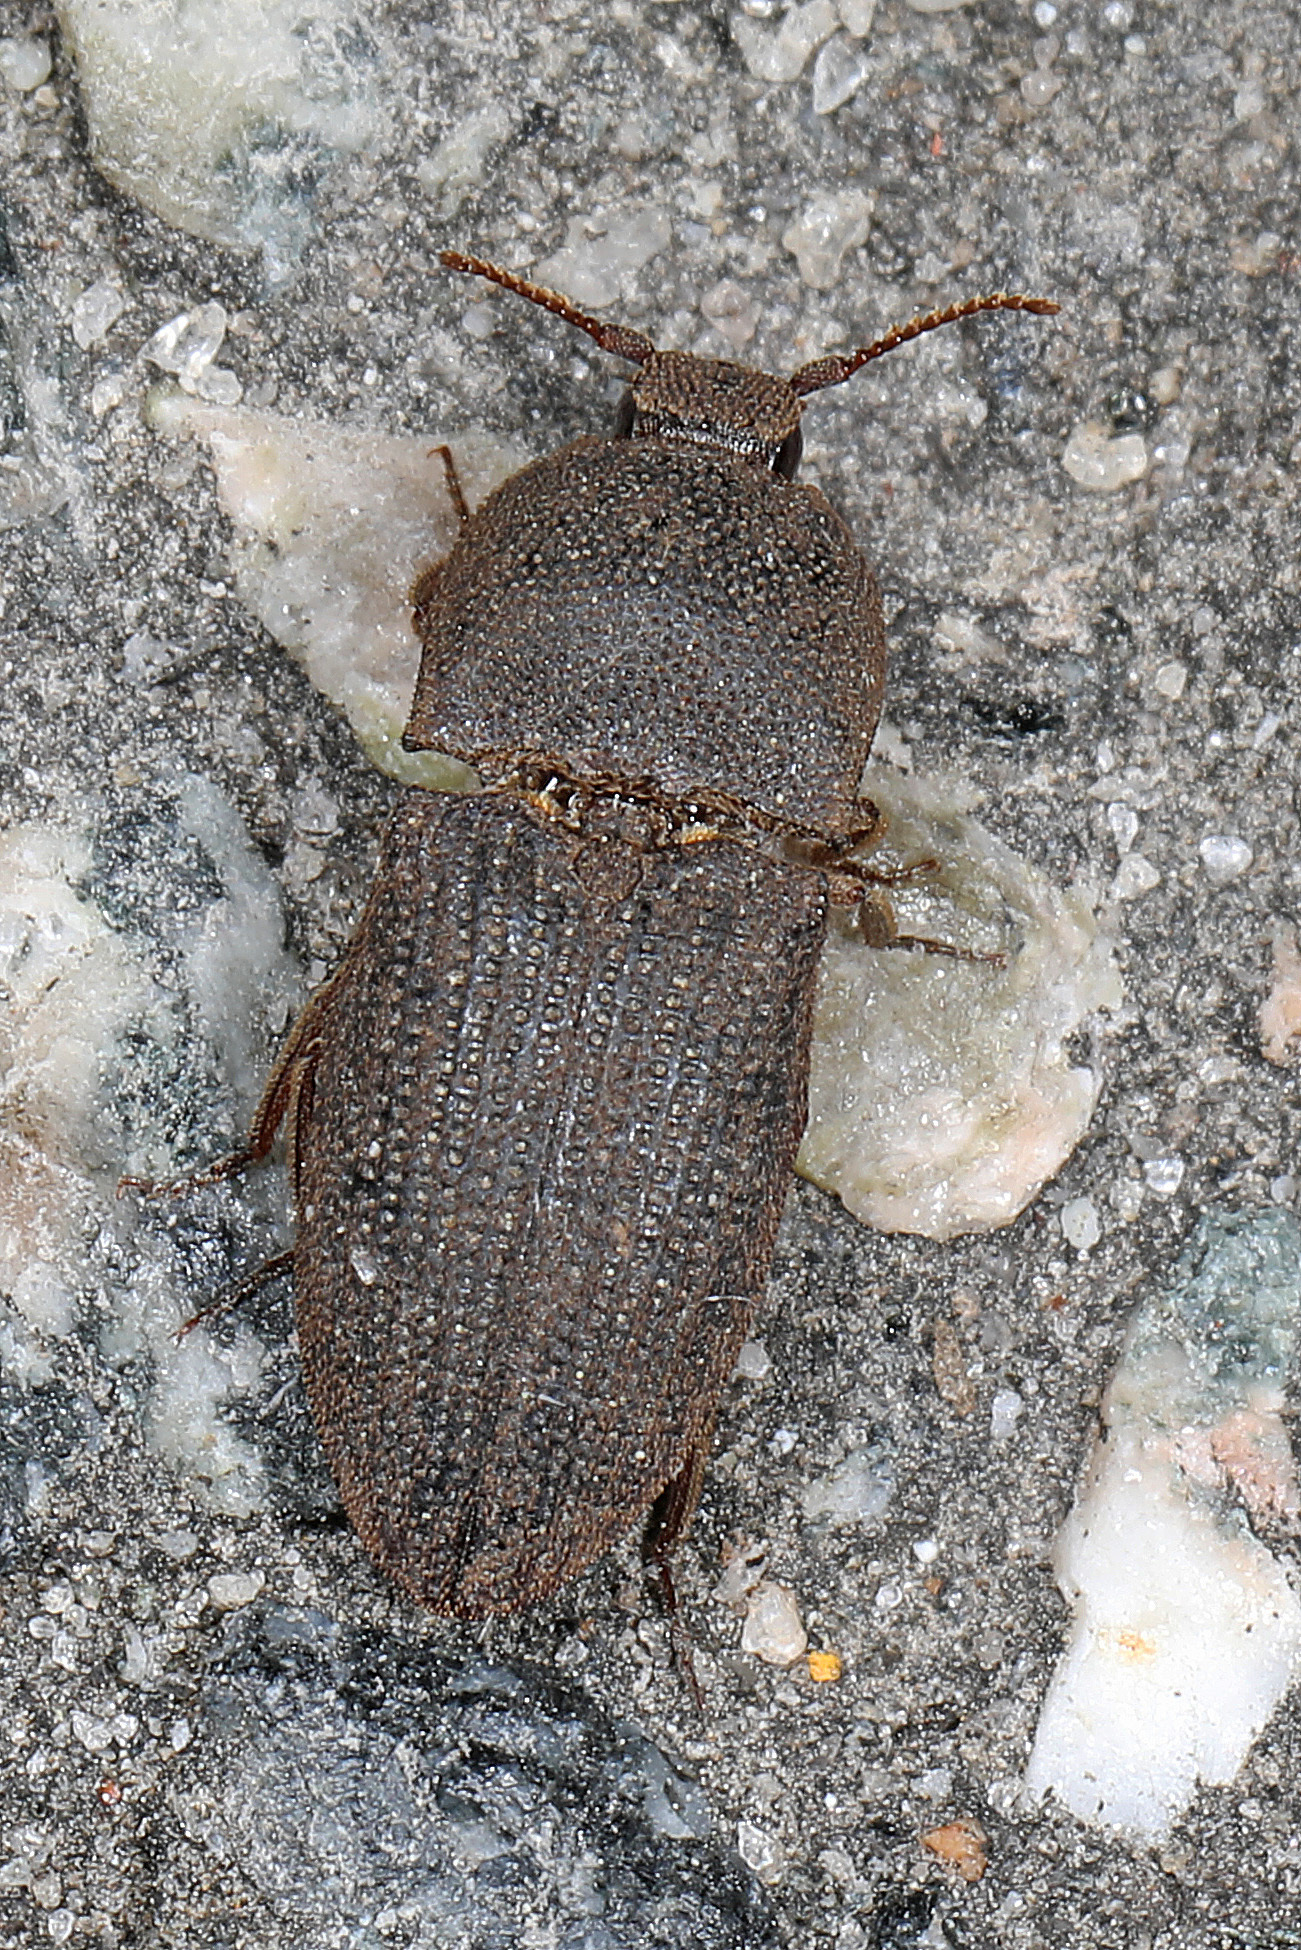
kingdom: Animalia
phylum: Arthropoda
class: Insecta
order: Coleoptera
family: Elateridae
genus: Agrypnus
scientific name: Agrypnus rectangularis
